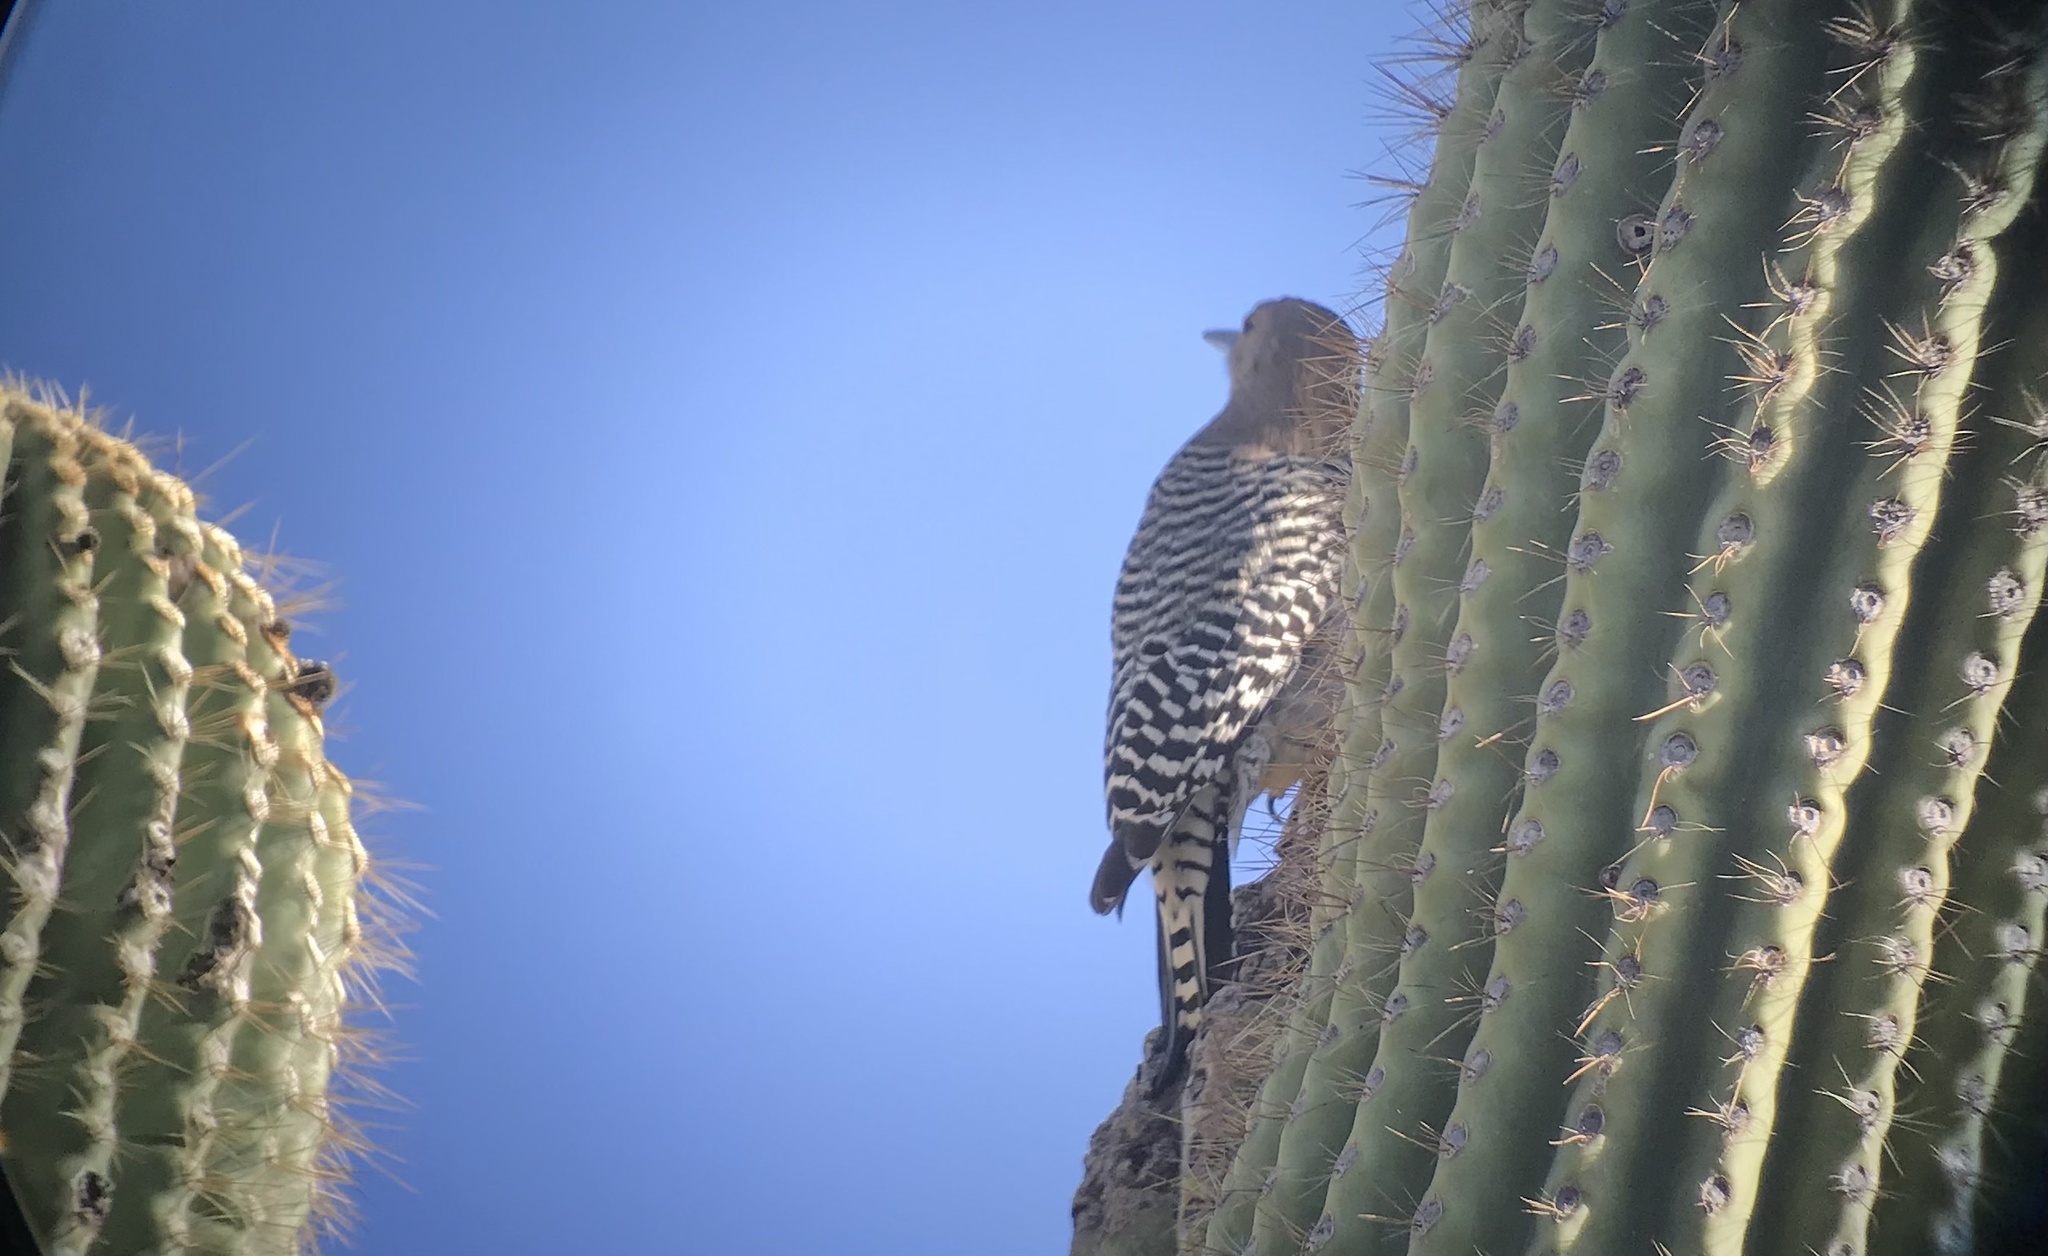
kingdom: Animalia
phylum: Chordata
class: Aves
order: Piciformes
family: Picidae
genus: Melanerpes
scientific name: Melanerpes uropygialis
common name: Gila woodpecker
